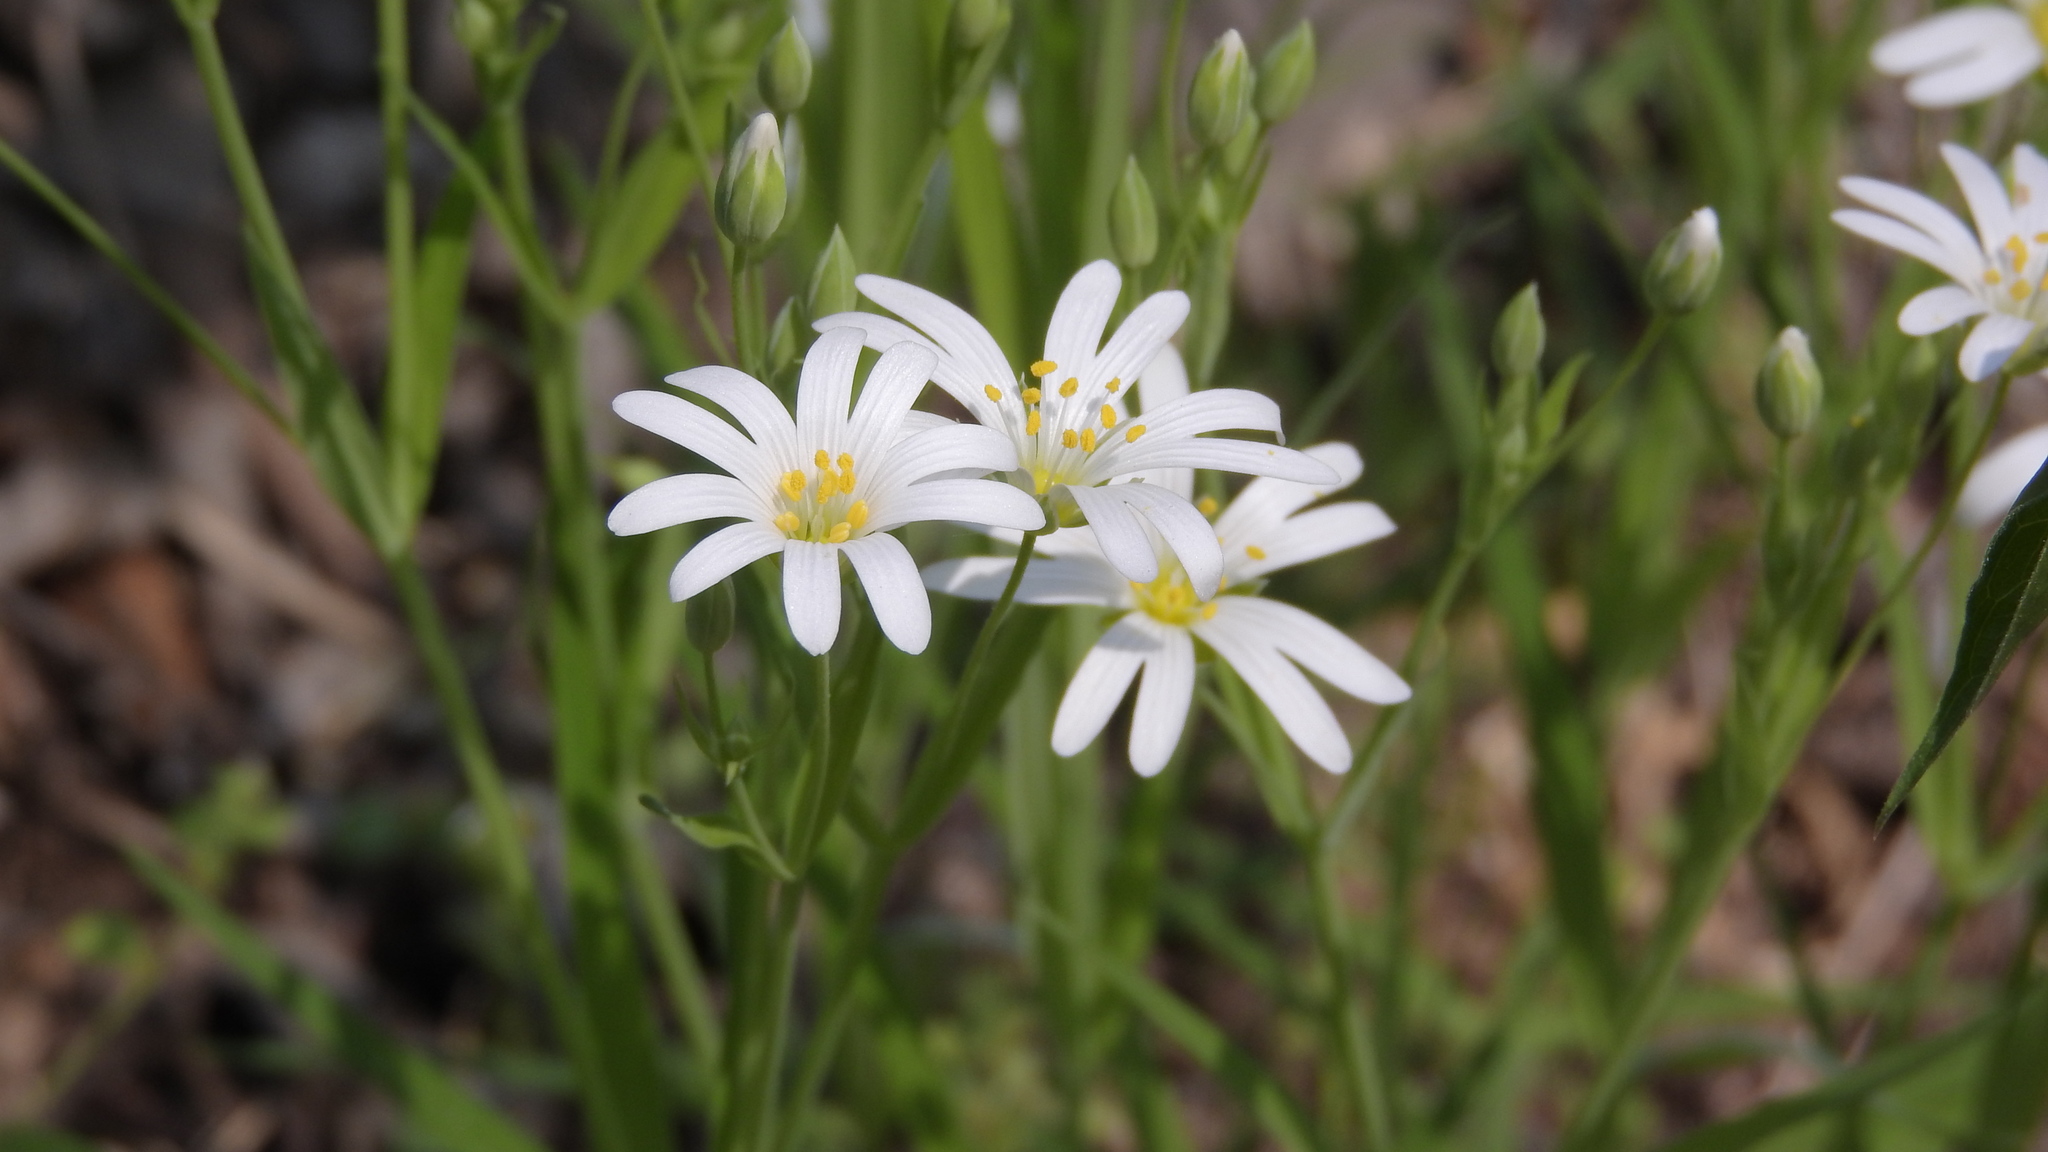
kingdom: Plantae
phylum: Tracheophyta
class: Magnoliopsida
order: Caryophyllales
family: Caryophyllaceae
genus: Rabelera
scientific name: Rabelera holostea
